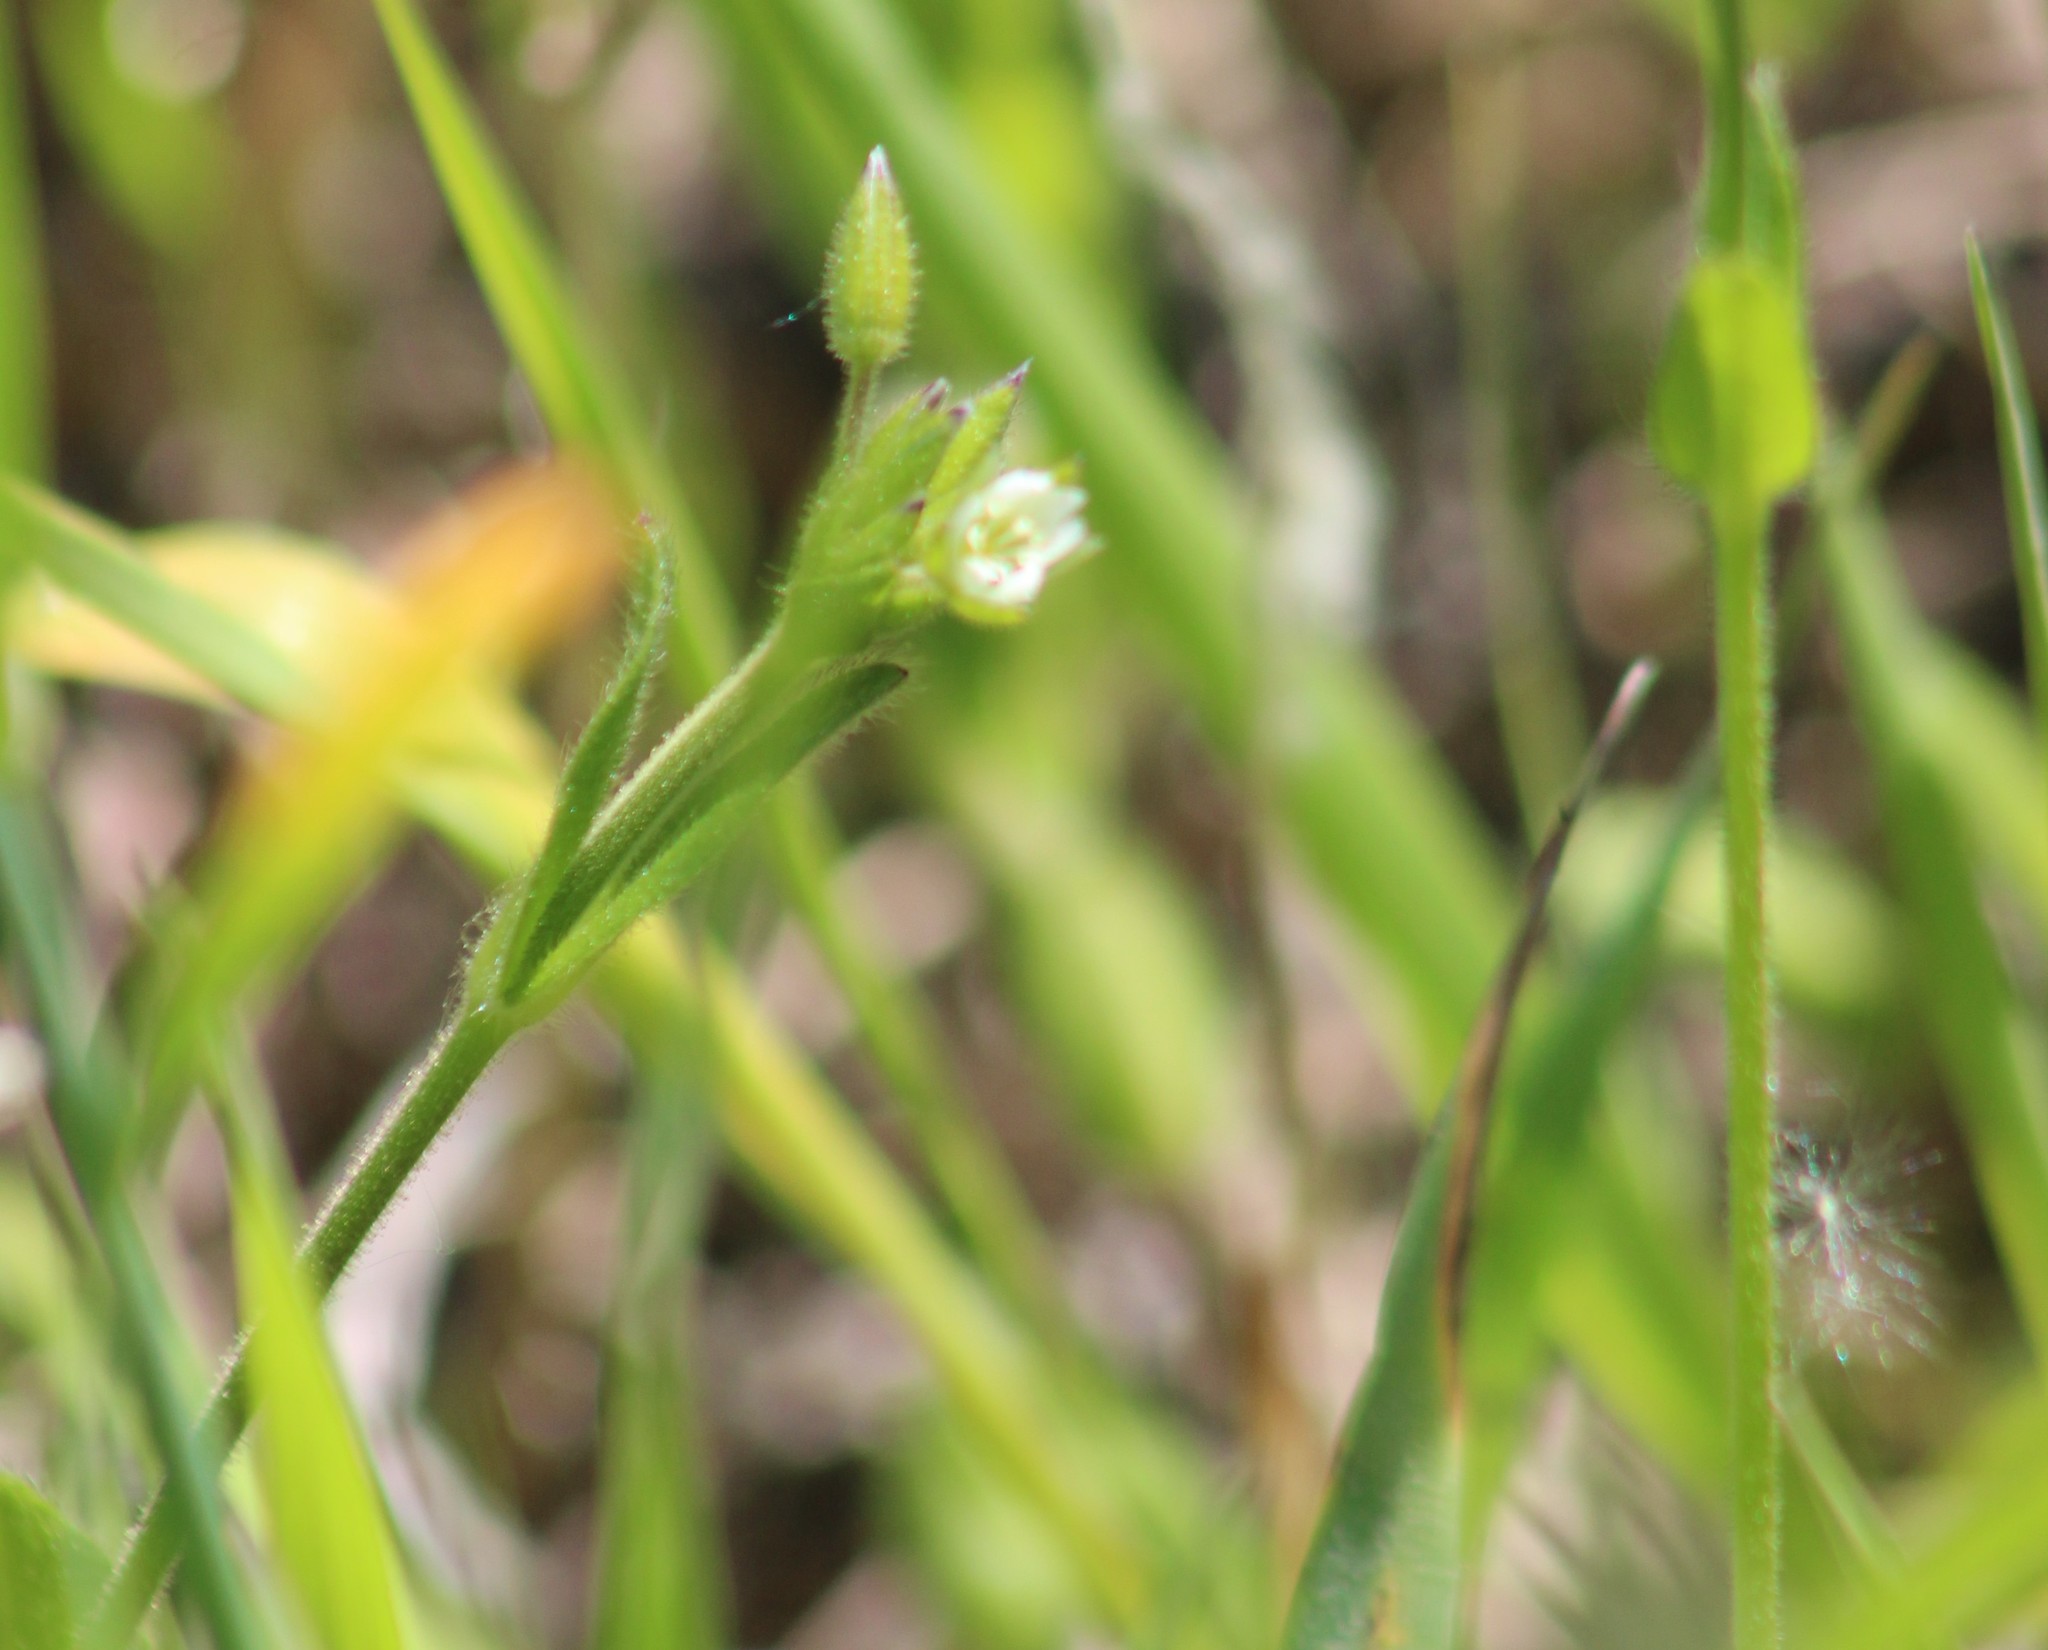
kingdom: Plantae
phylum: Tracheophyta
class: Magnoliopsida
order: Caryophyllales
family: Caryophyllaceae
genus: Cerastium
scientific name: Cerastium holosteoides
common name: Big chickweed
